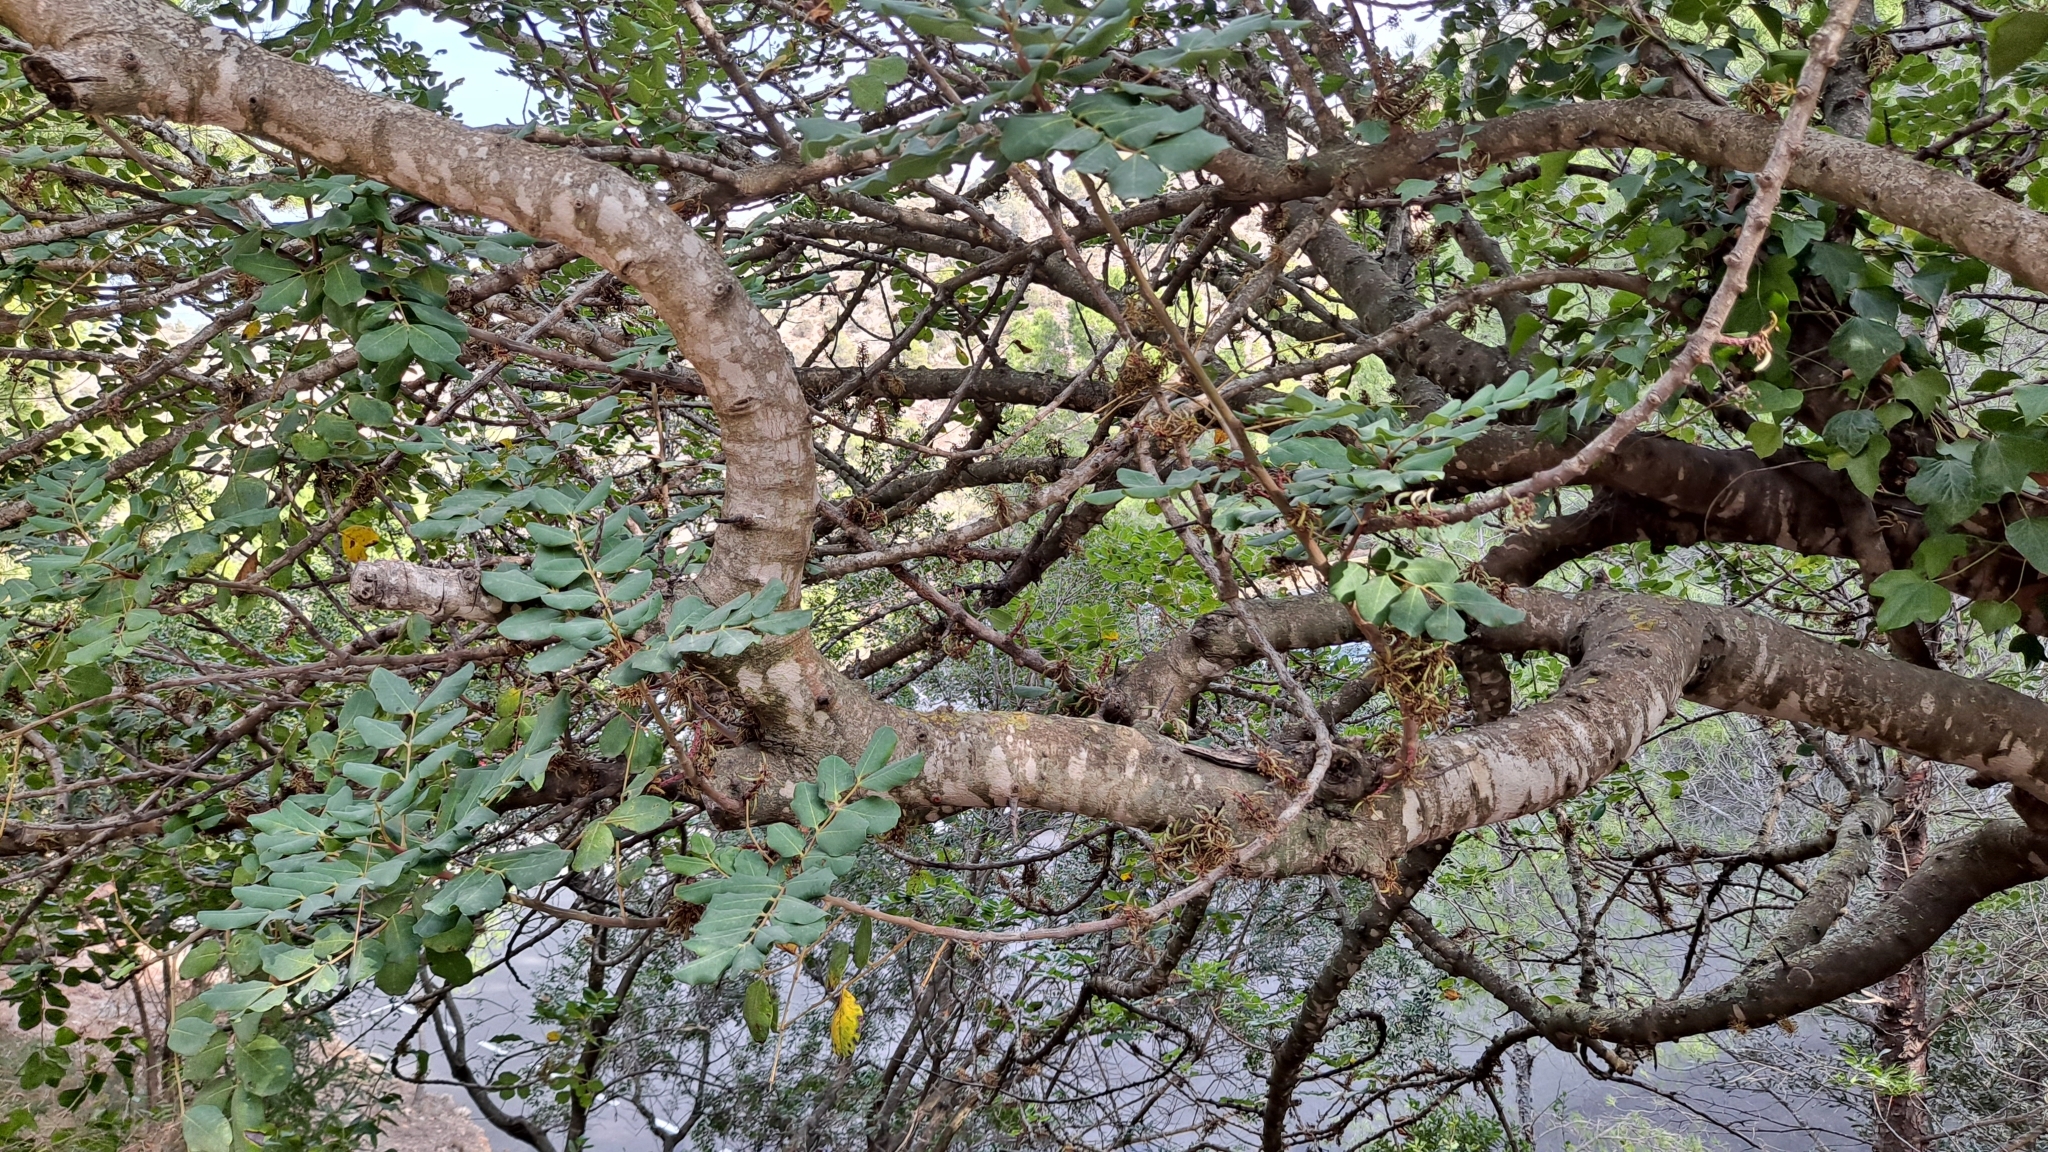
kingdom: Plantae
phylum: Tracheophyta
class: Magnoliopsida
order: Fabales
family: Fabaceae
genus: Ceratonia
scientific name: Ceratonia siliqua
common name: Carob
